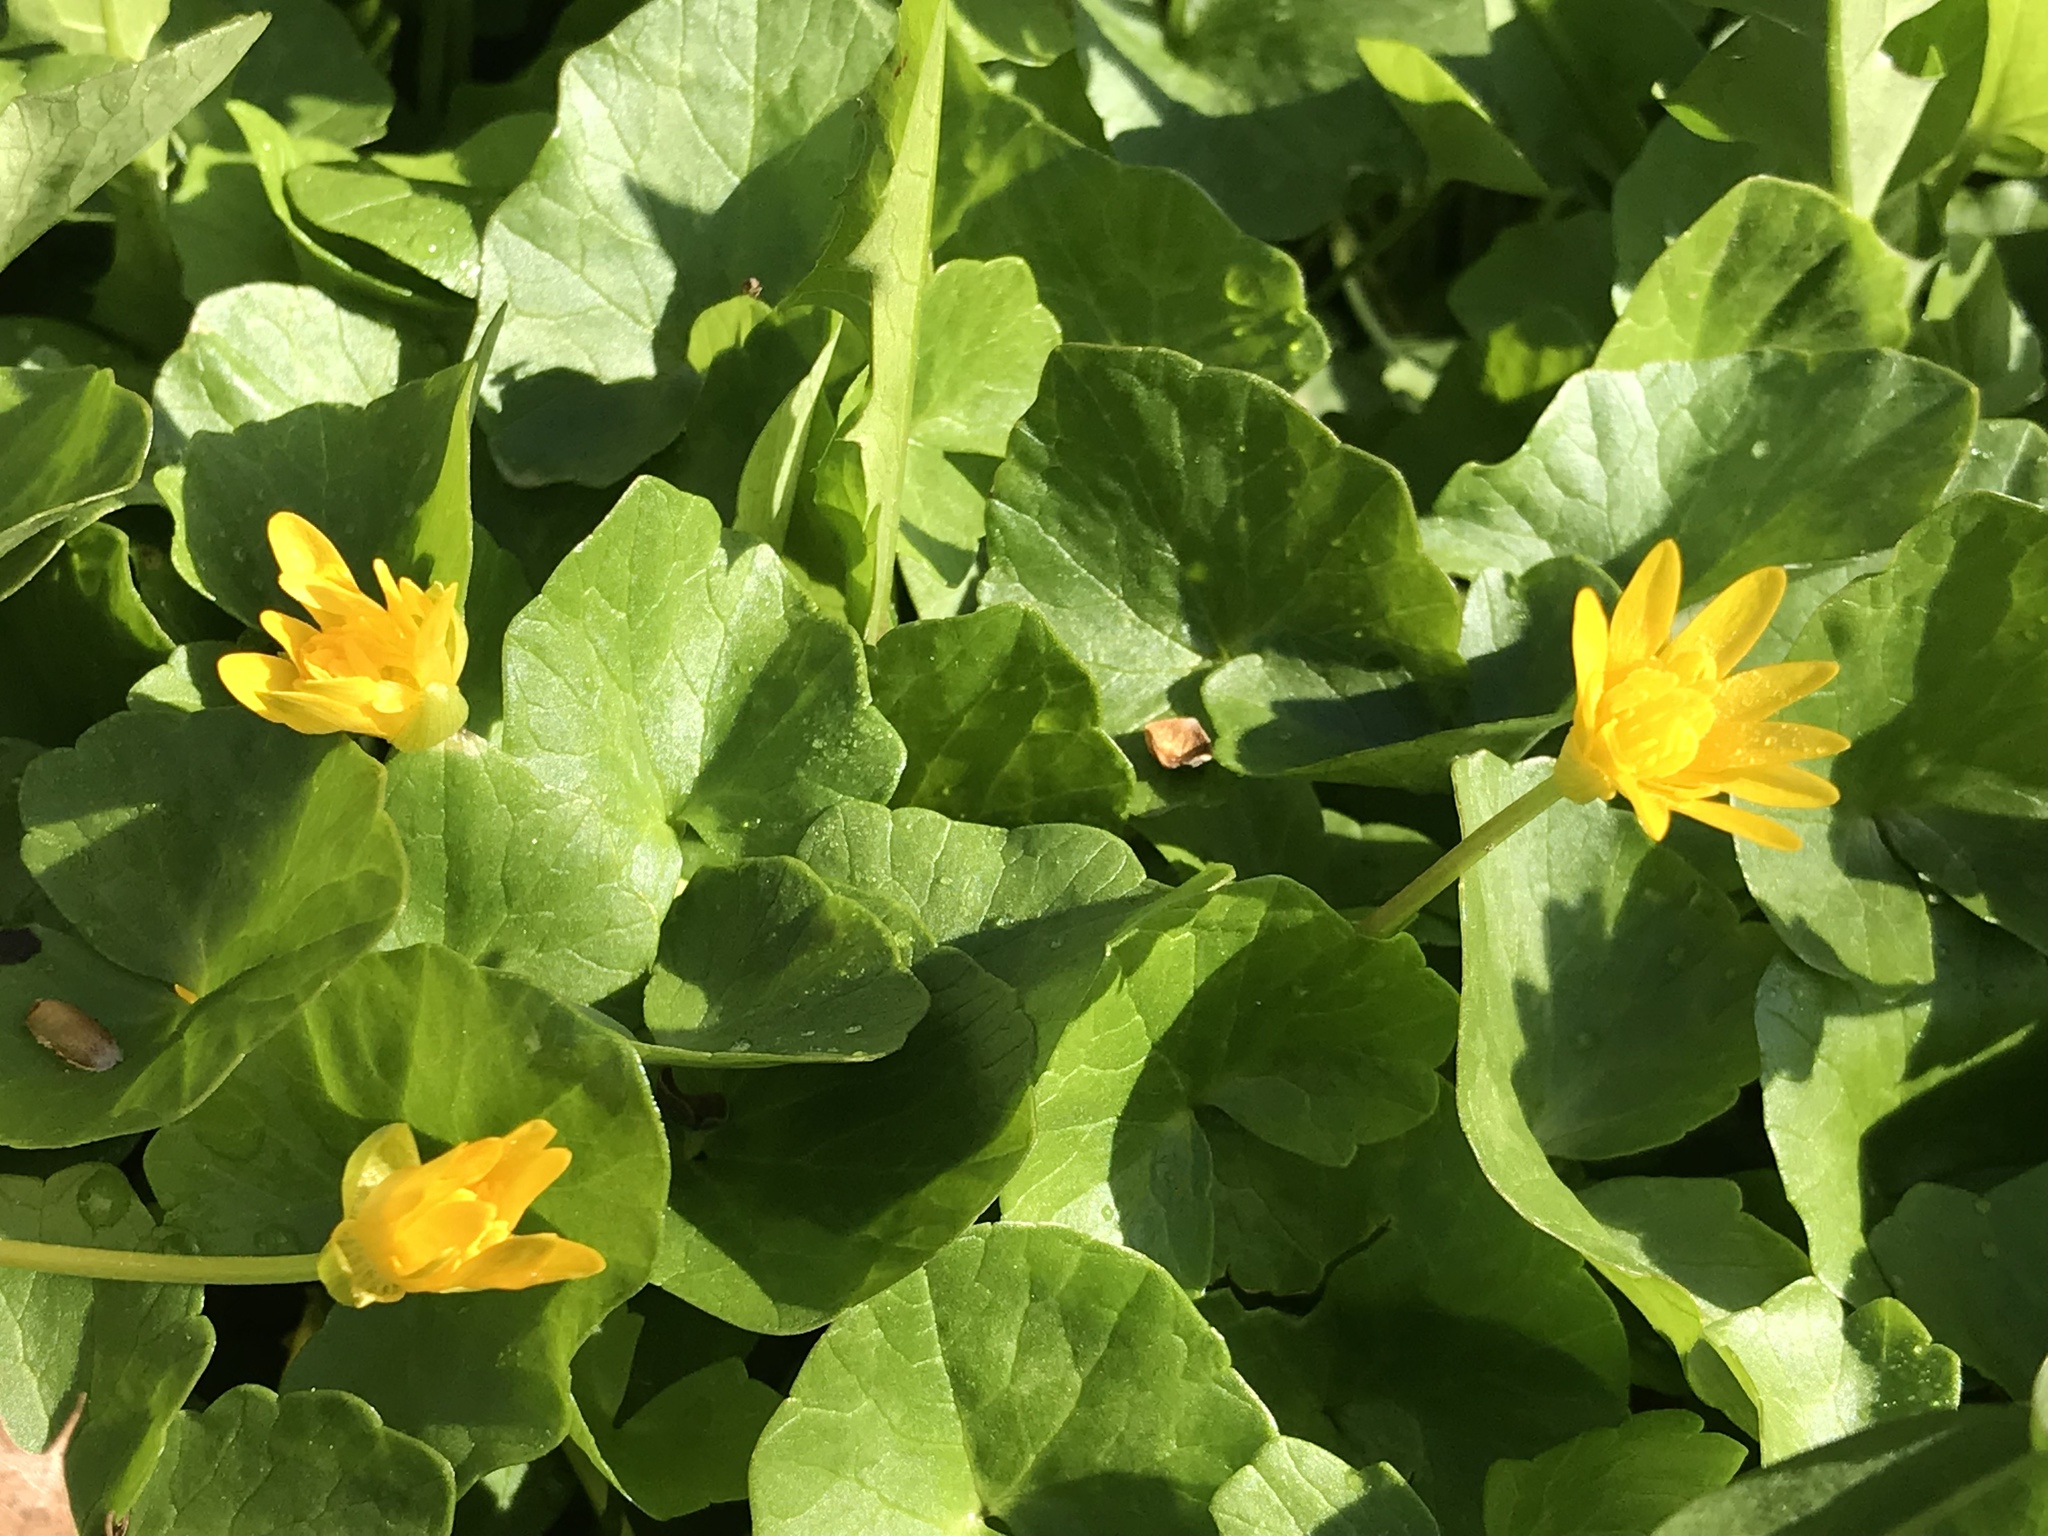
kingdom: Plantae
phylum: Tracheophyta
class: Magnoliopsida
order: Ranunculales
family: Ranunculaceae
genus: Ficaria
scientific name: Ficaria verna
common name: Lesser celandine
